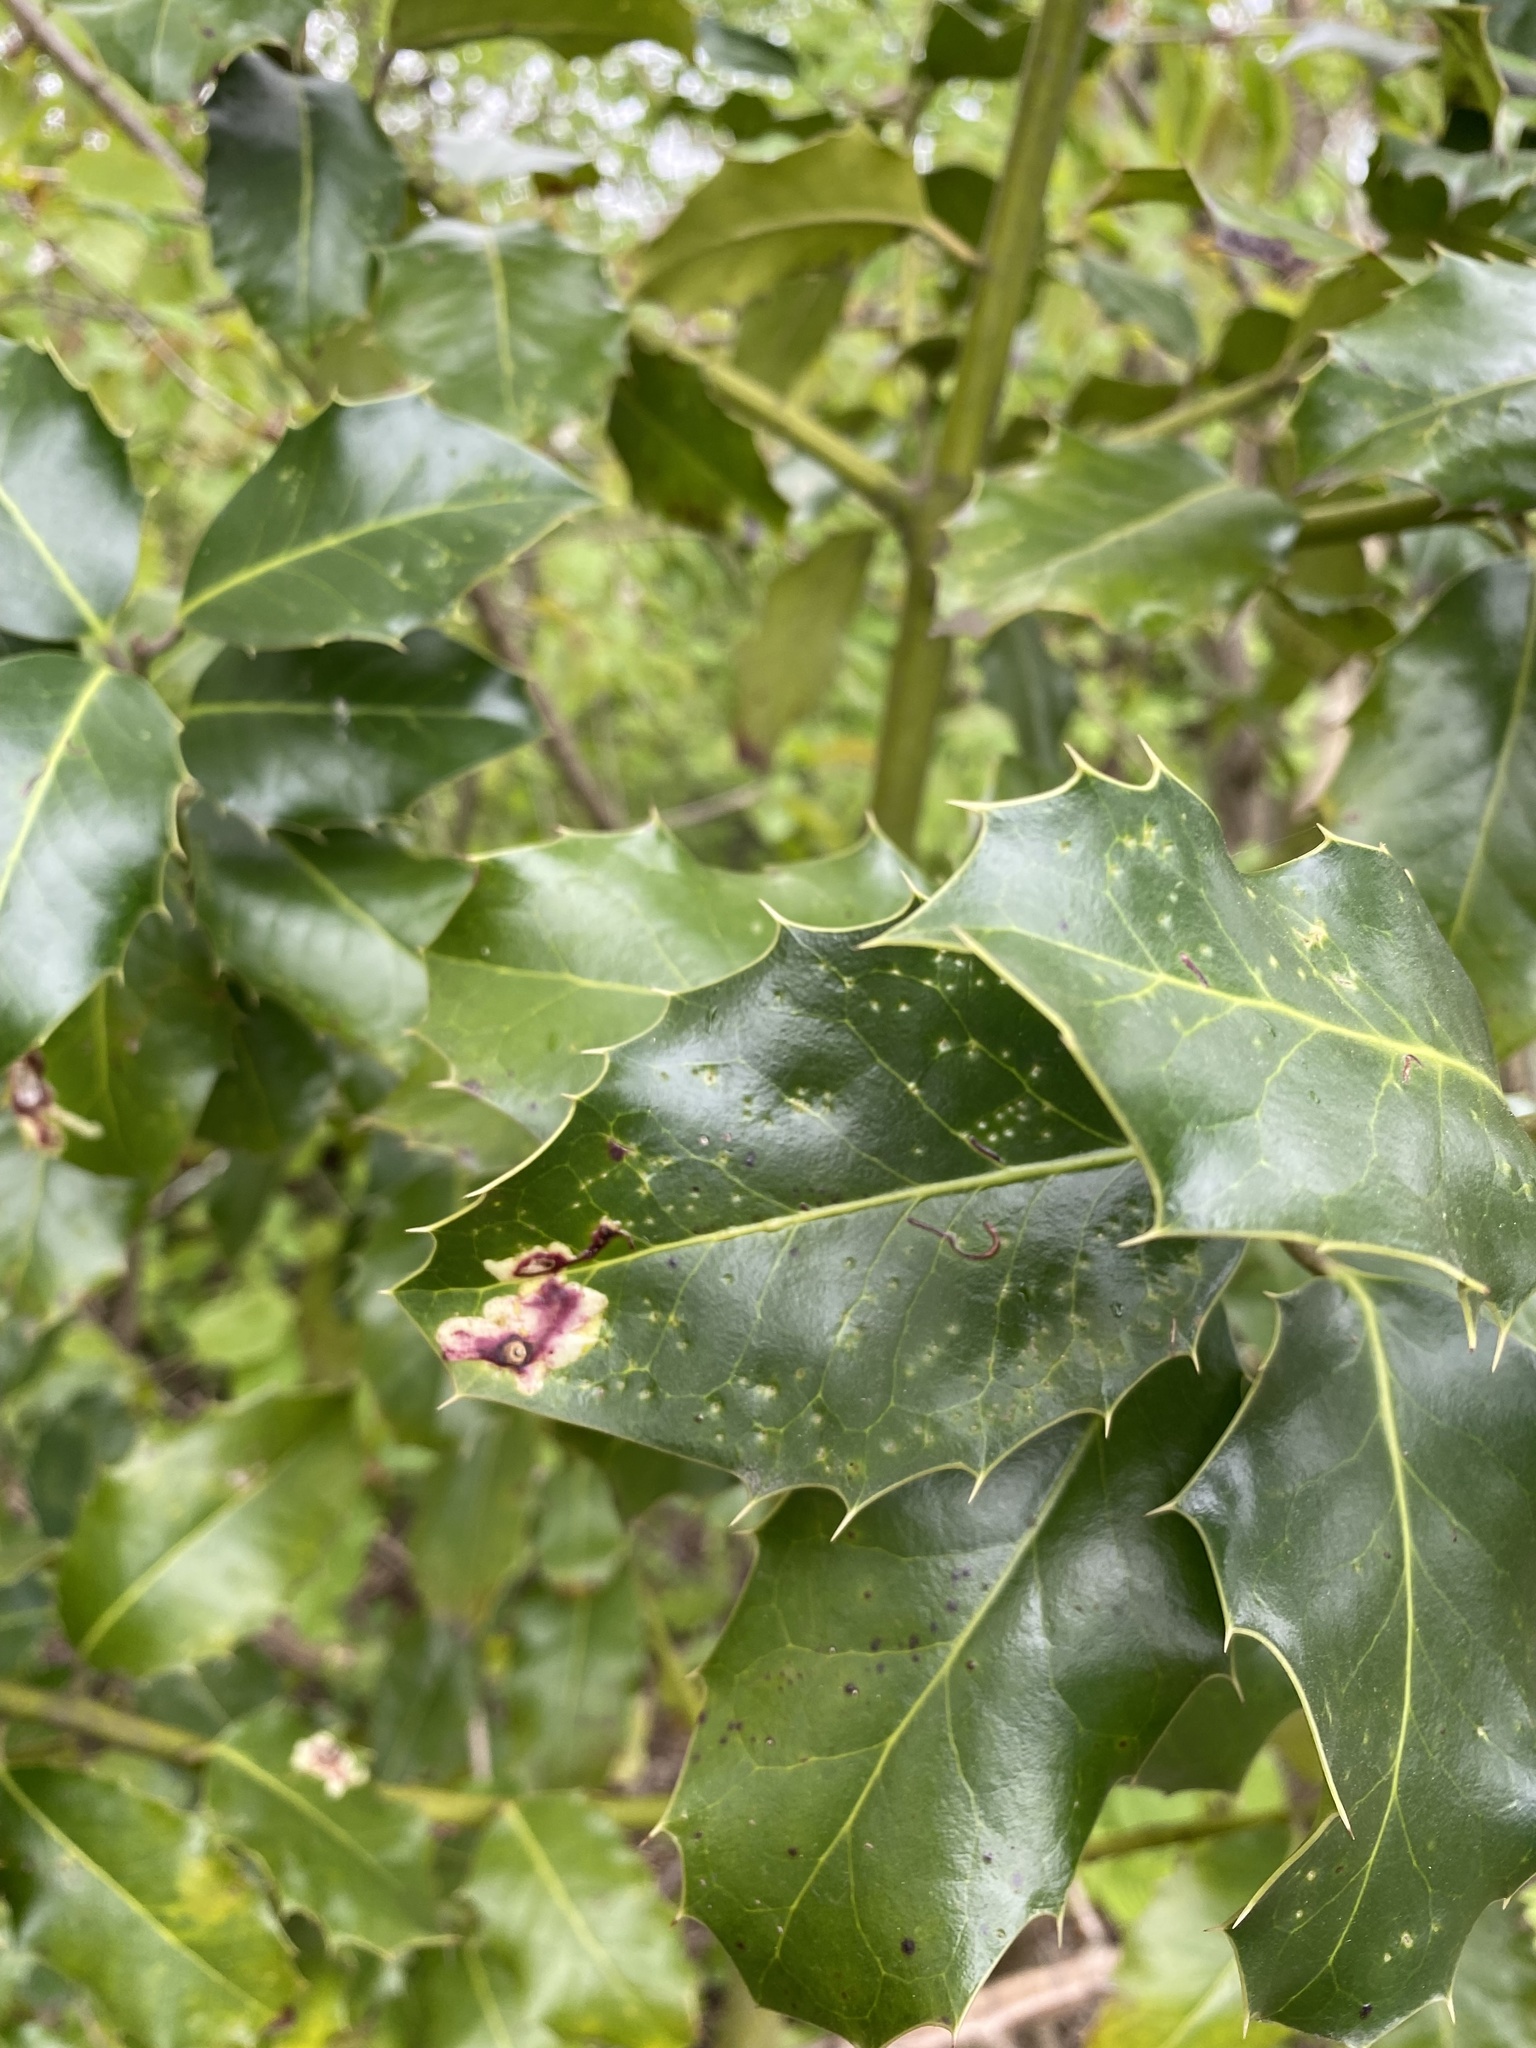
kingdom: Animalia
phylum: Arthropoda
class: Insecta
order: Diptera
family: Agromyzidae
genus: Phytomyza
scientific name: Phytomyza ilicis
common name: Holly leafminer
